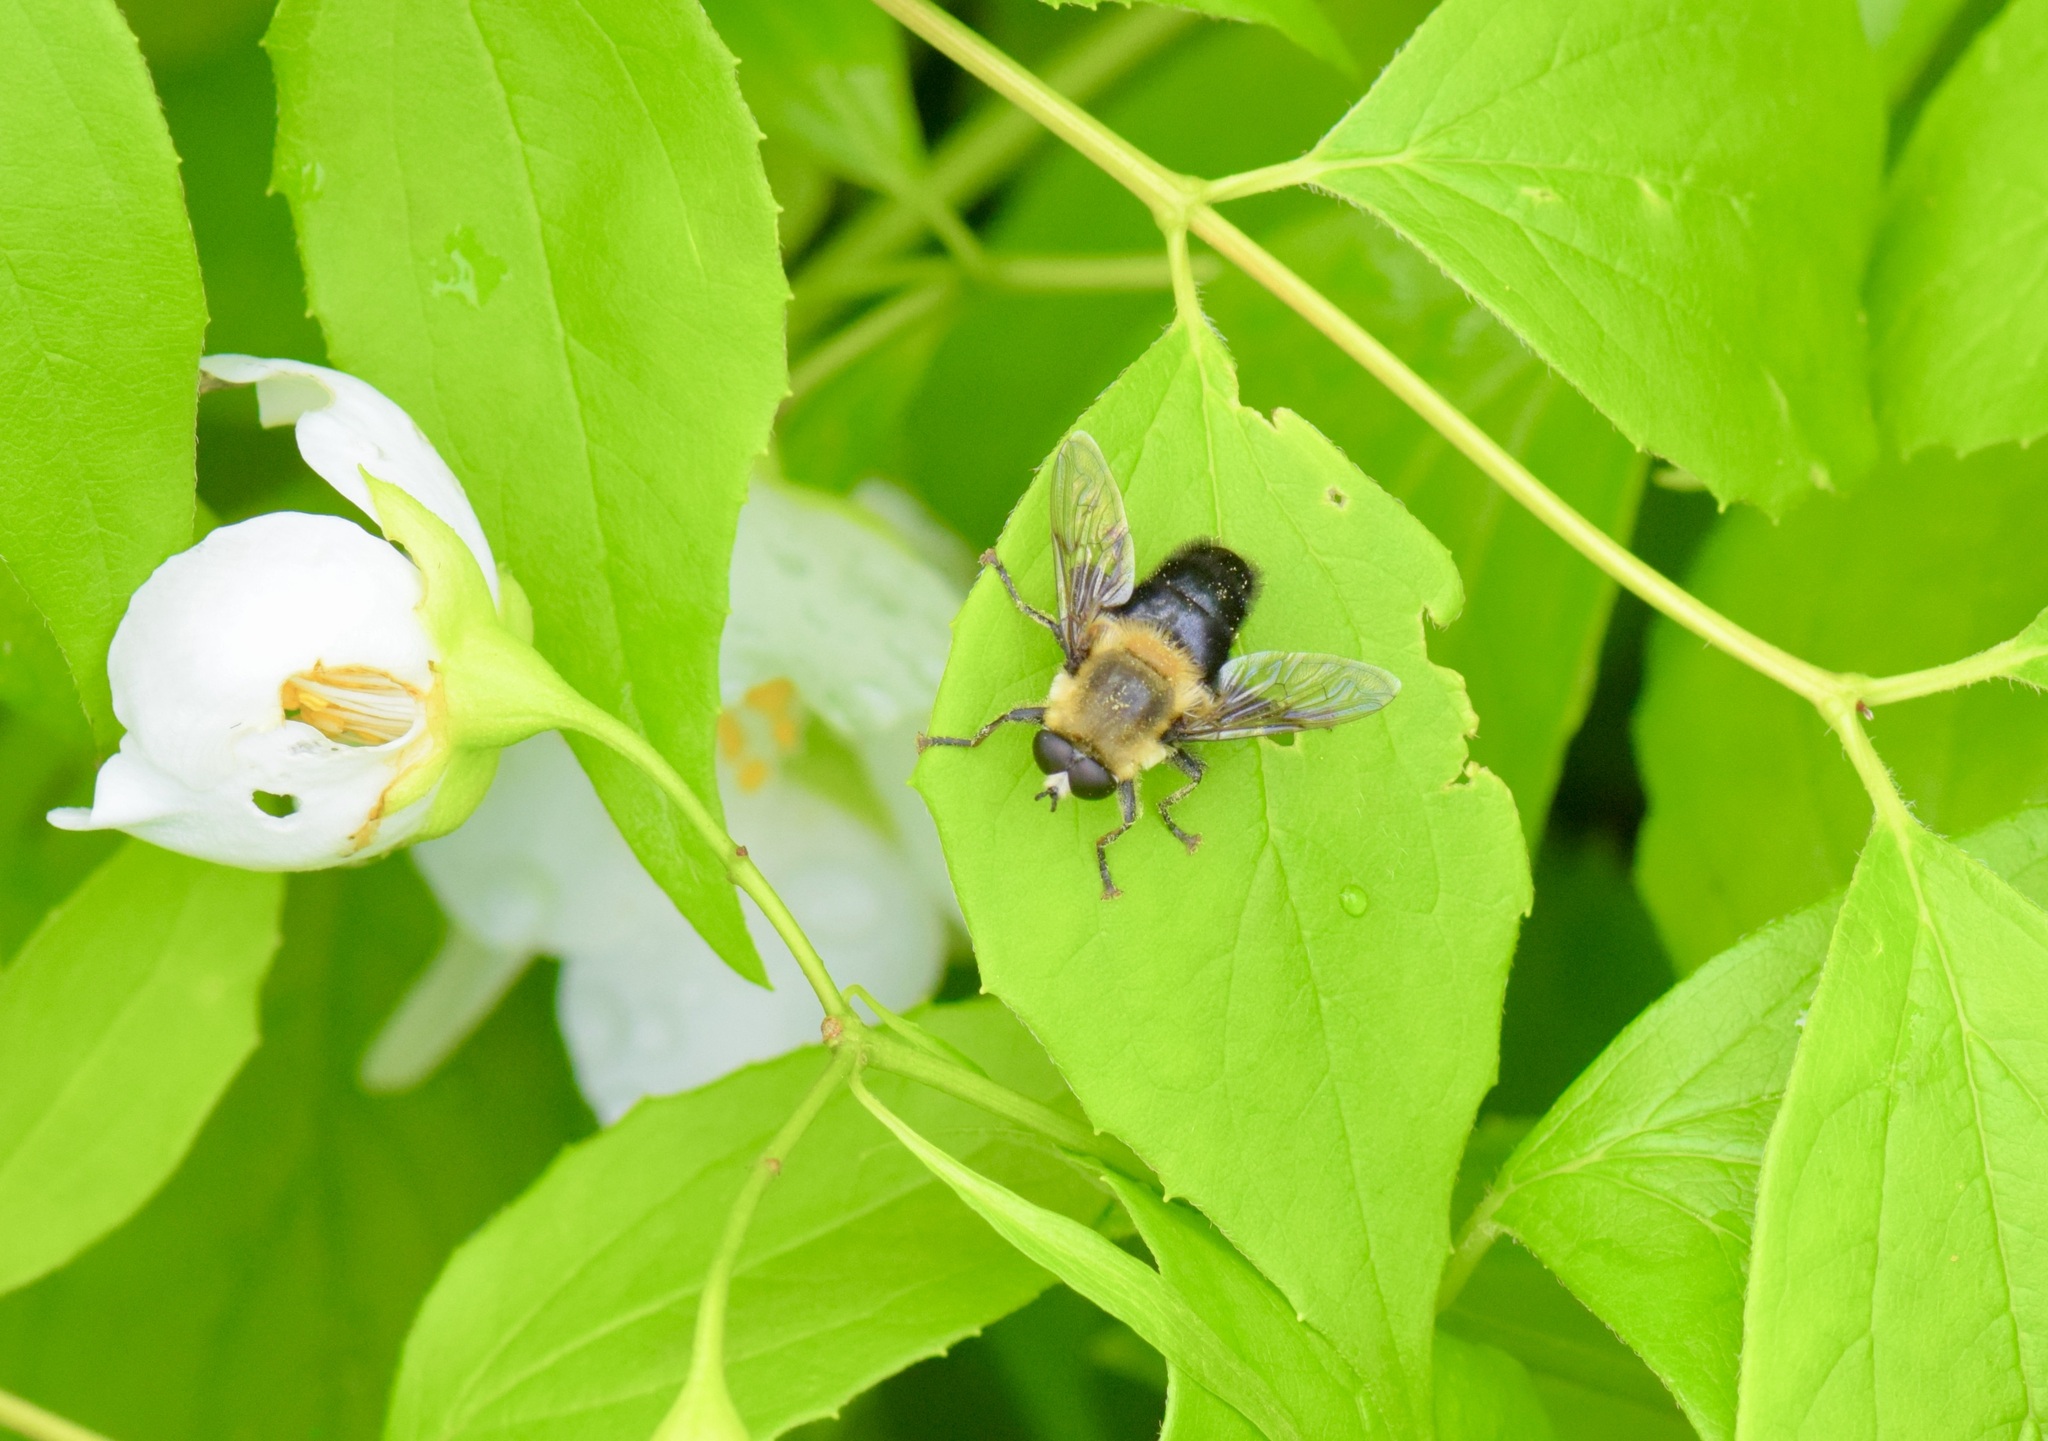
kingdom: Animalia
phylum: Arthropoda
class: Insecta
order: Diptera
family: Syrphidae
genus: Imatisma
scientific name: Imatisma bautias
